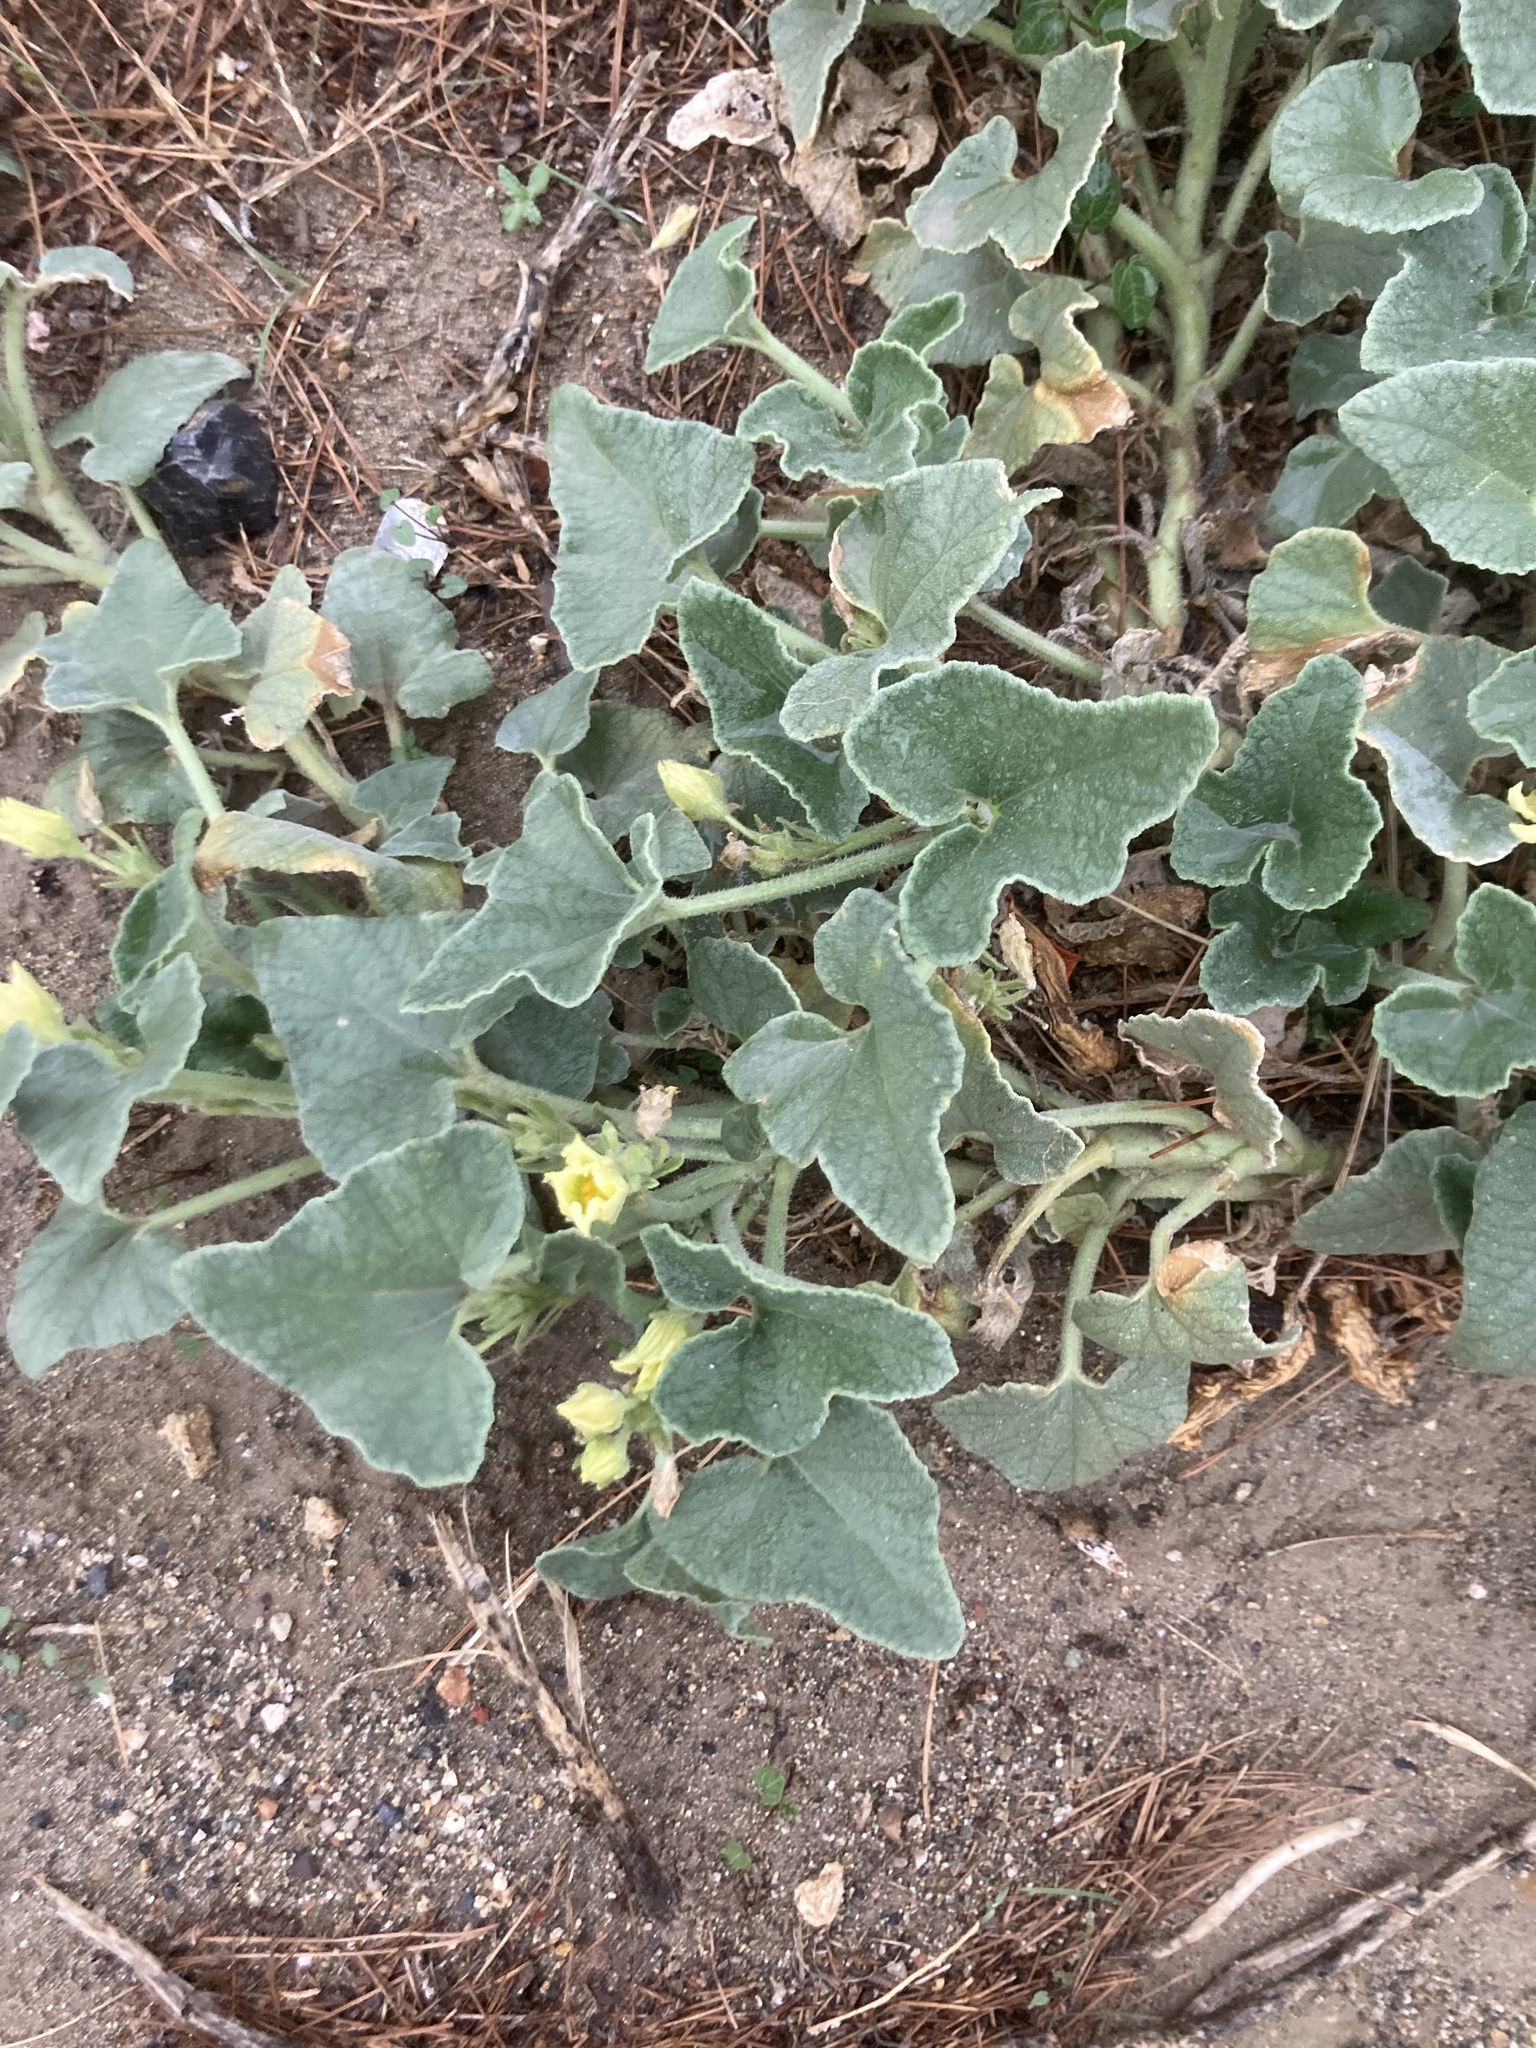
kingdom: Plantae
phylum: Tracheophyta
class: Magnoliopsida
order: Cucurbitales
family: Cucurbitaceae
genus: Ecballium
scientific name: Ecballium elaterium
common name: Squirting cucumber
